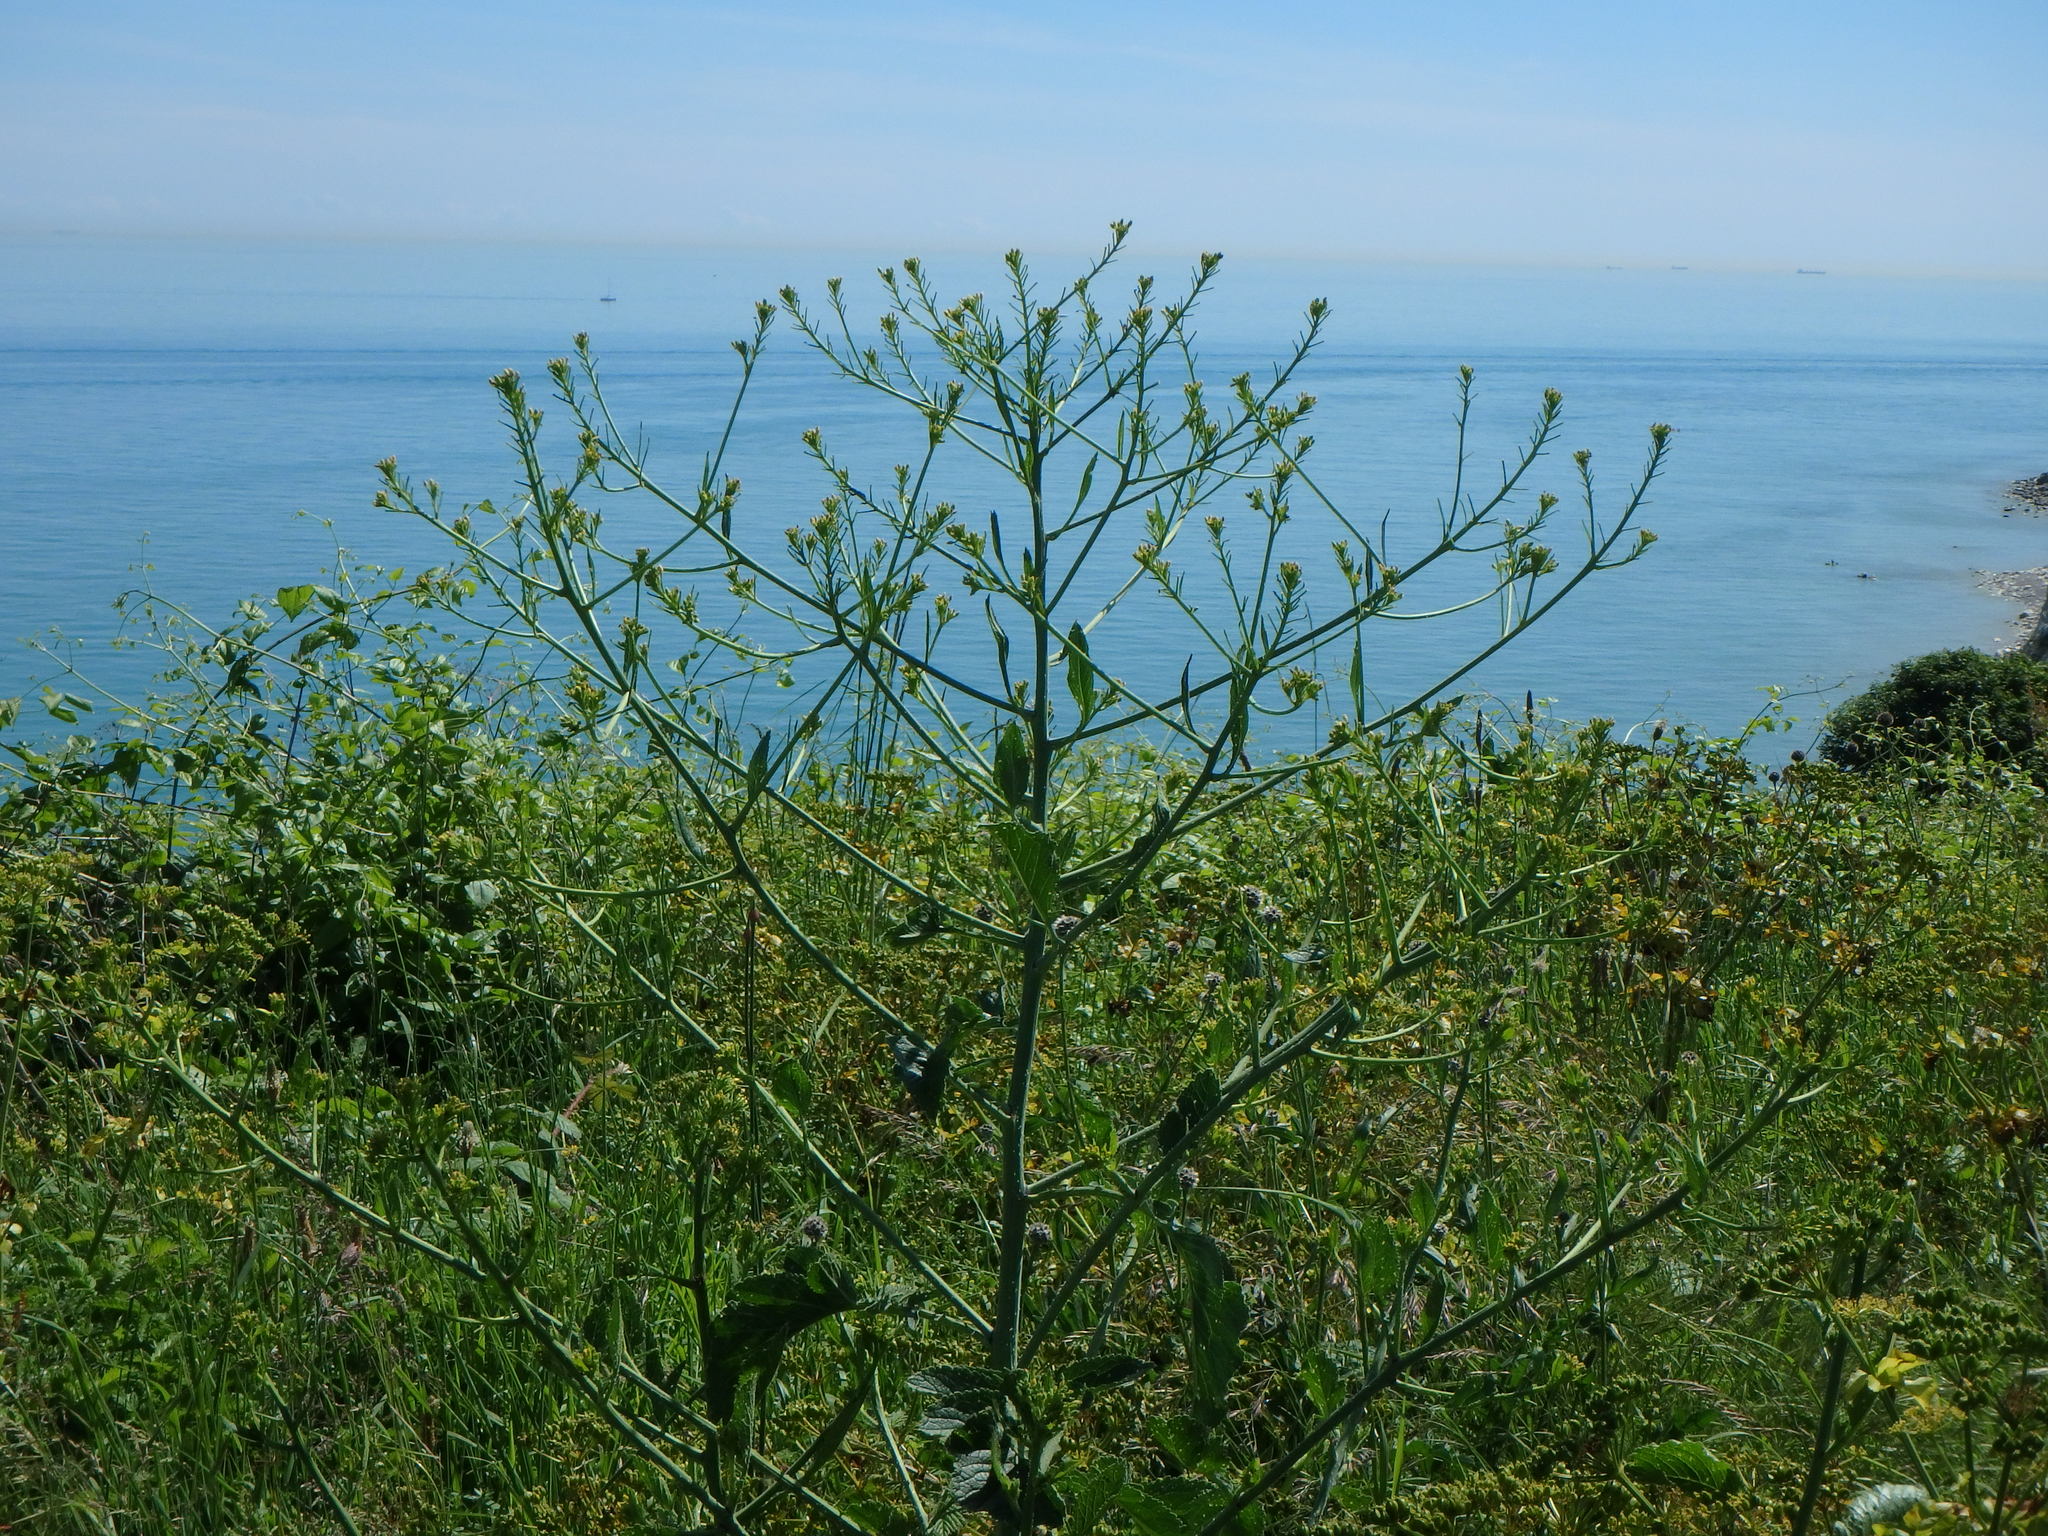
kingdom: Plantae
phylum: Tracheophyta
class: Magnoliopsida
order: Brassicales
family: Brassicaceae
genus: Raphanus
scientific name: Raphanus raphanistrum
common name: Wild radish
